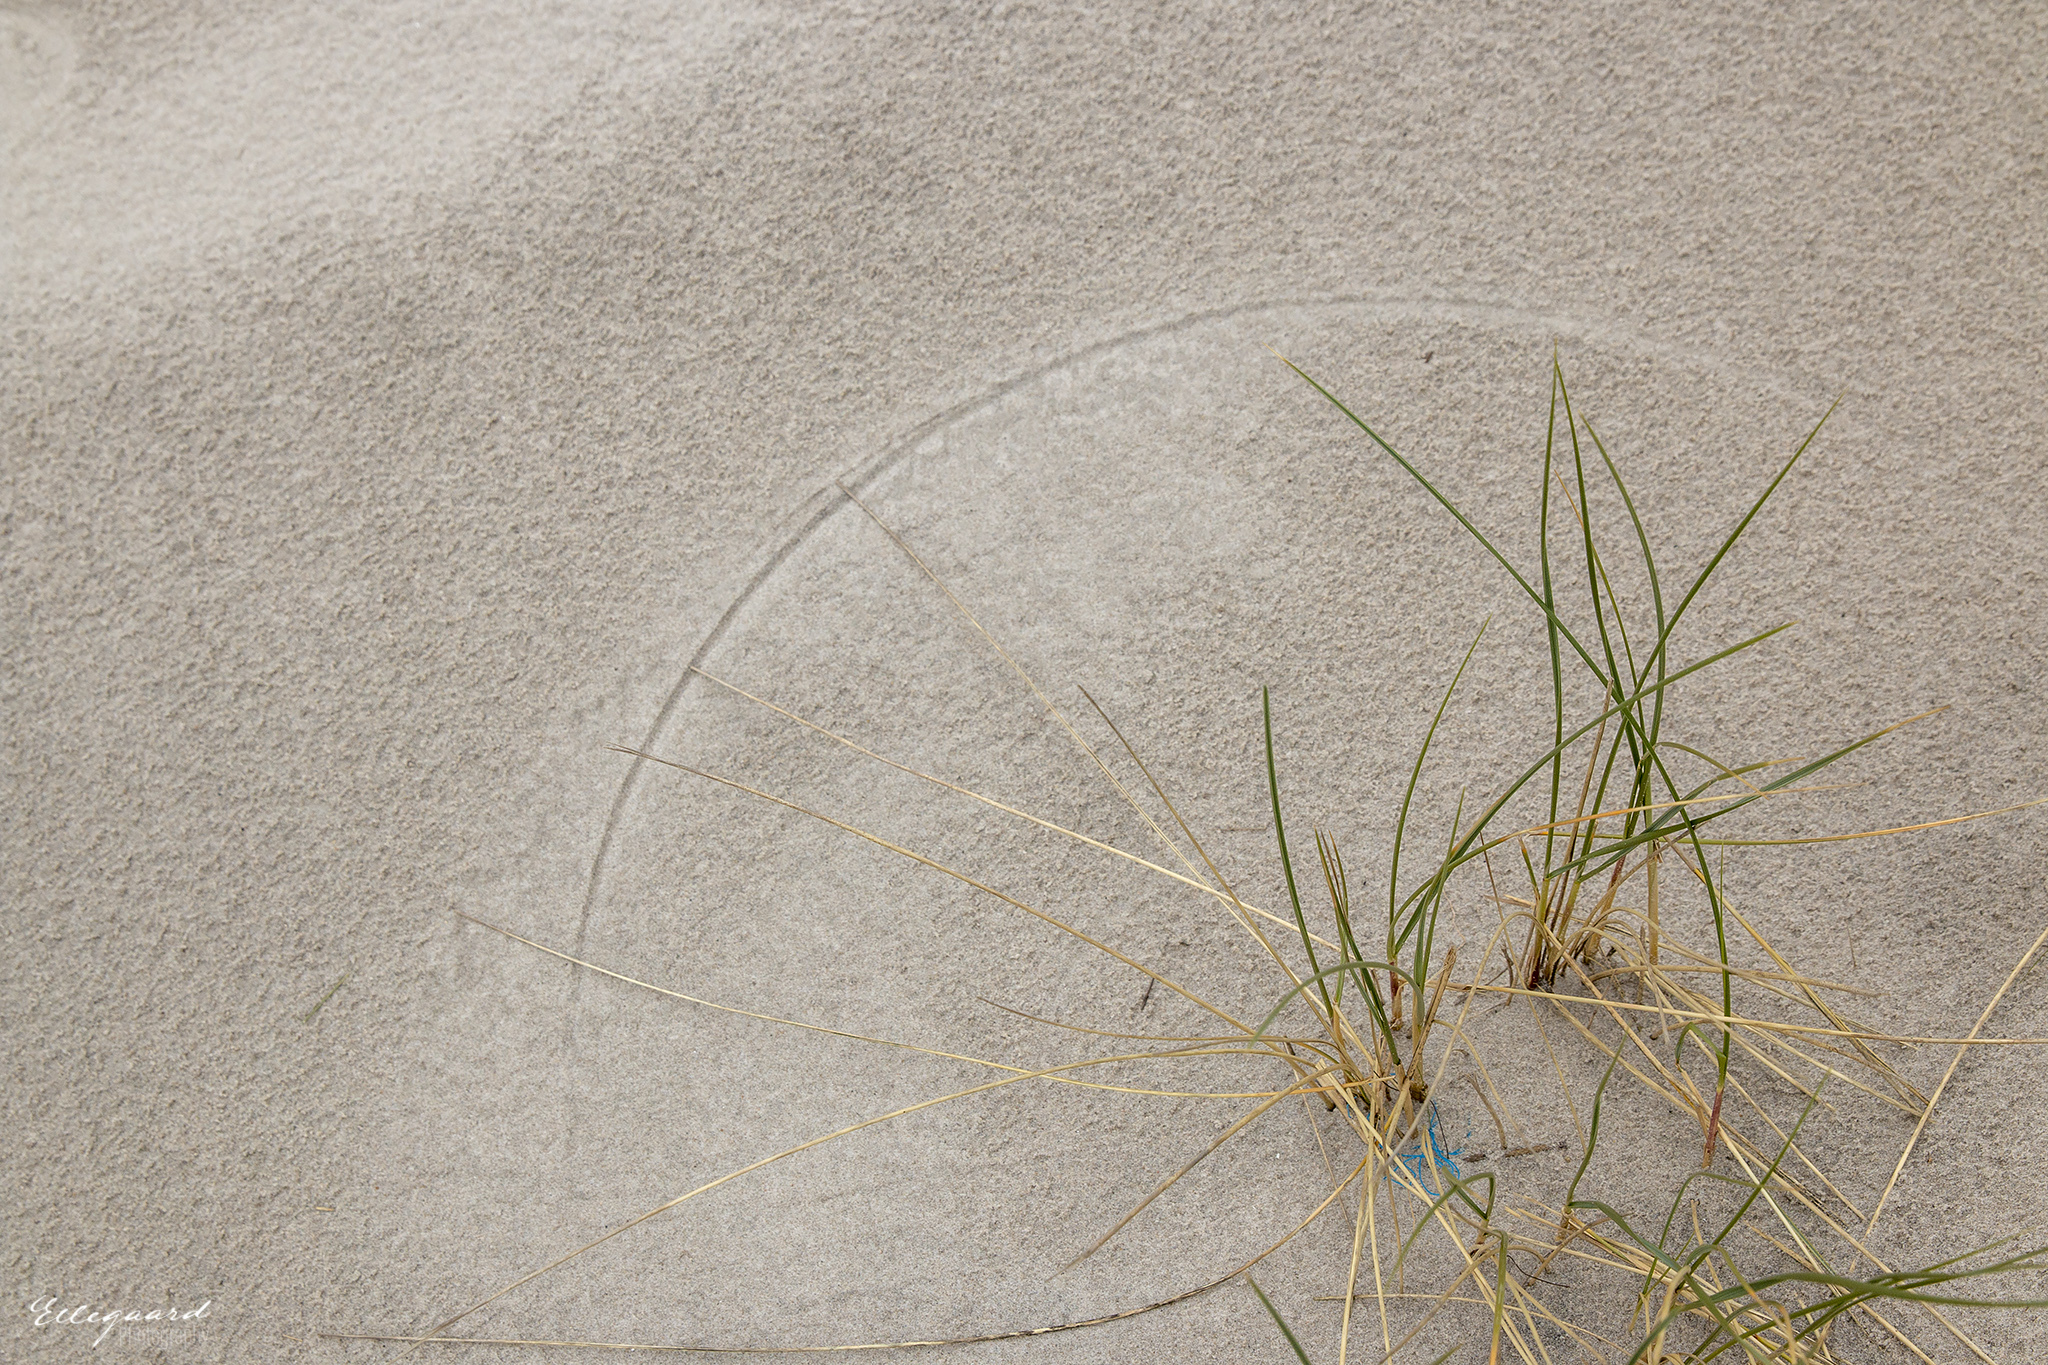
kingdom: Plantae
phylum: Tracheophyta
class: Liliopsida
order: Poales
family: Poaceae
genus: Calamagrostis
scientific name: Calamagrostis arenaria
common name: European beachgrass
